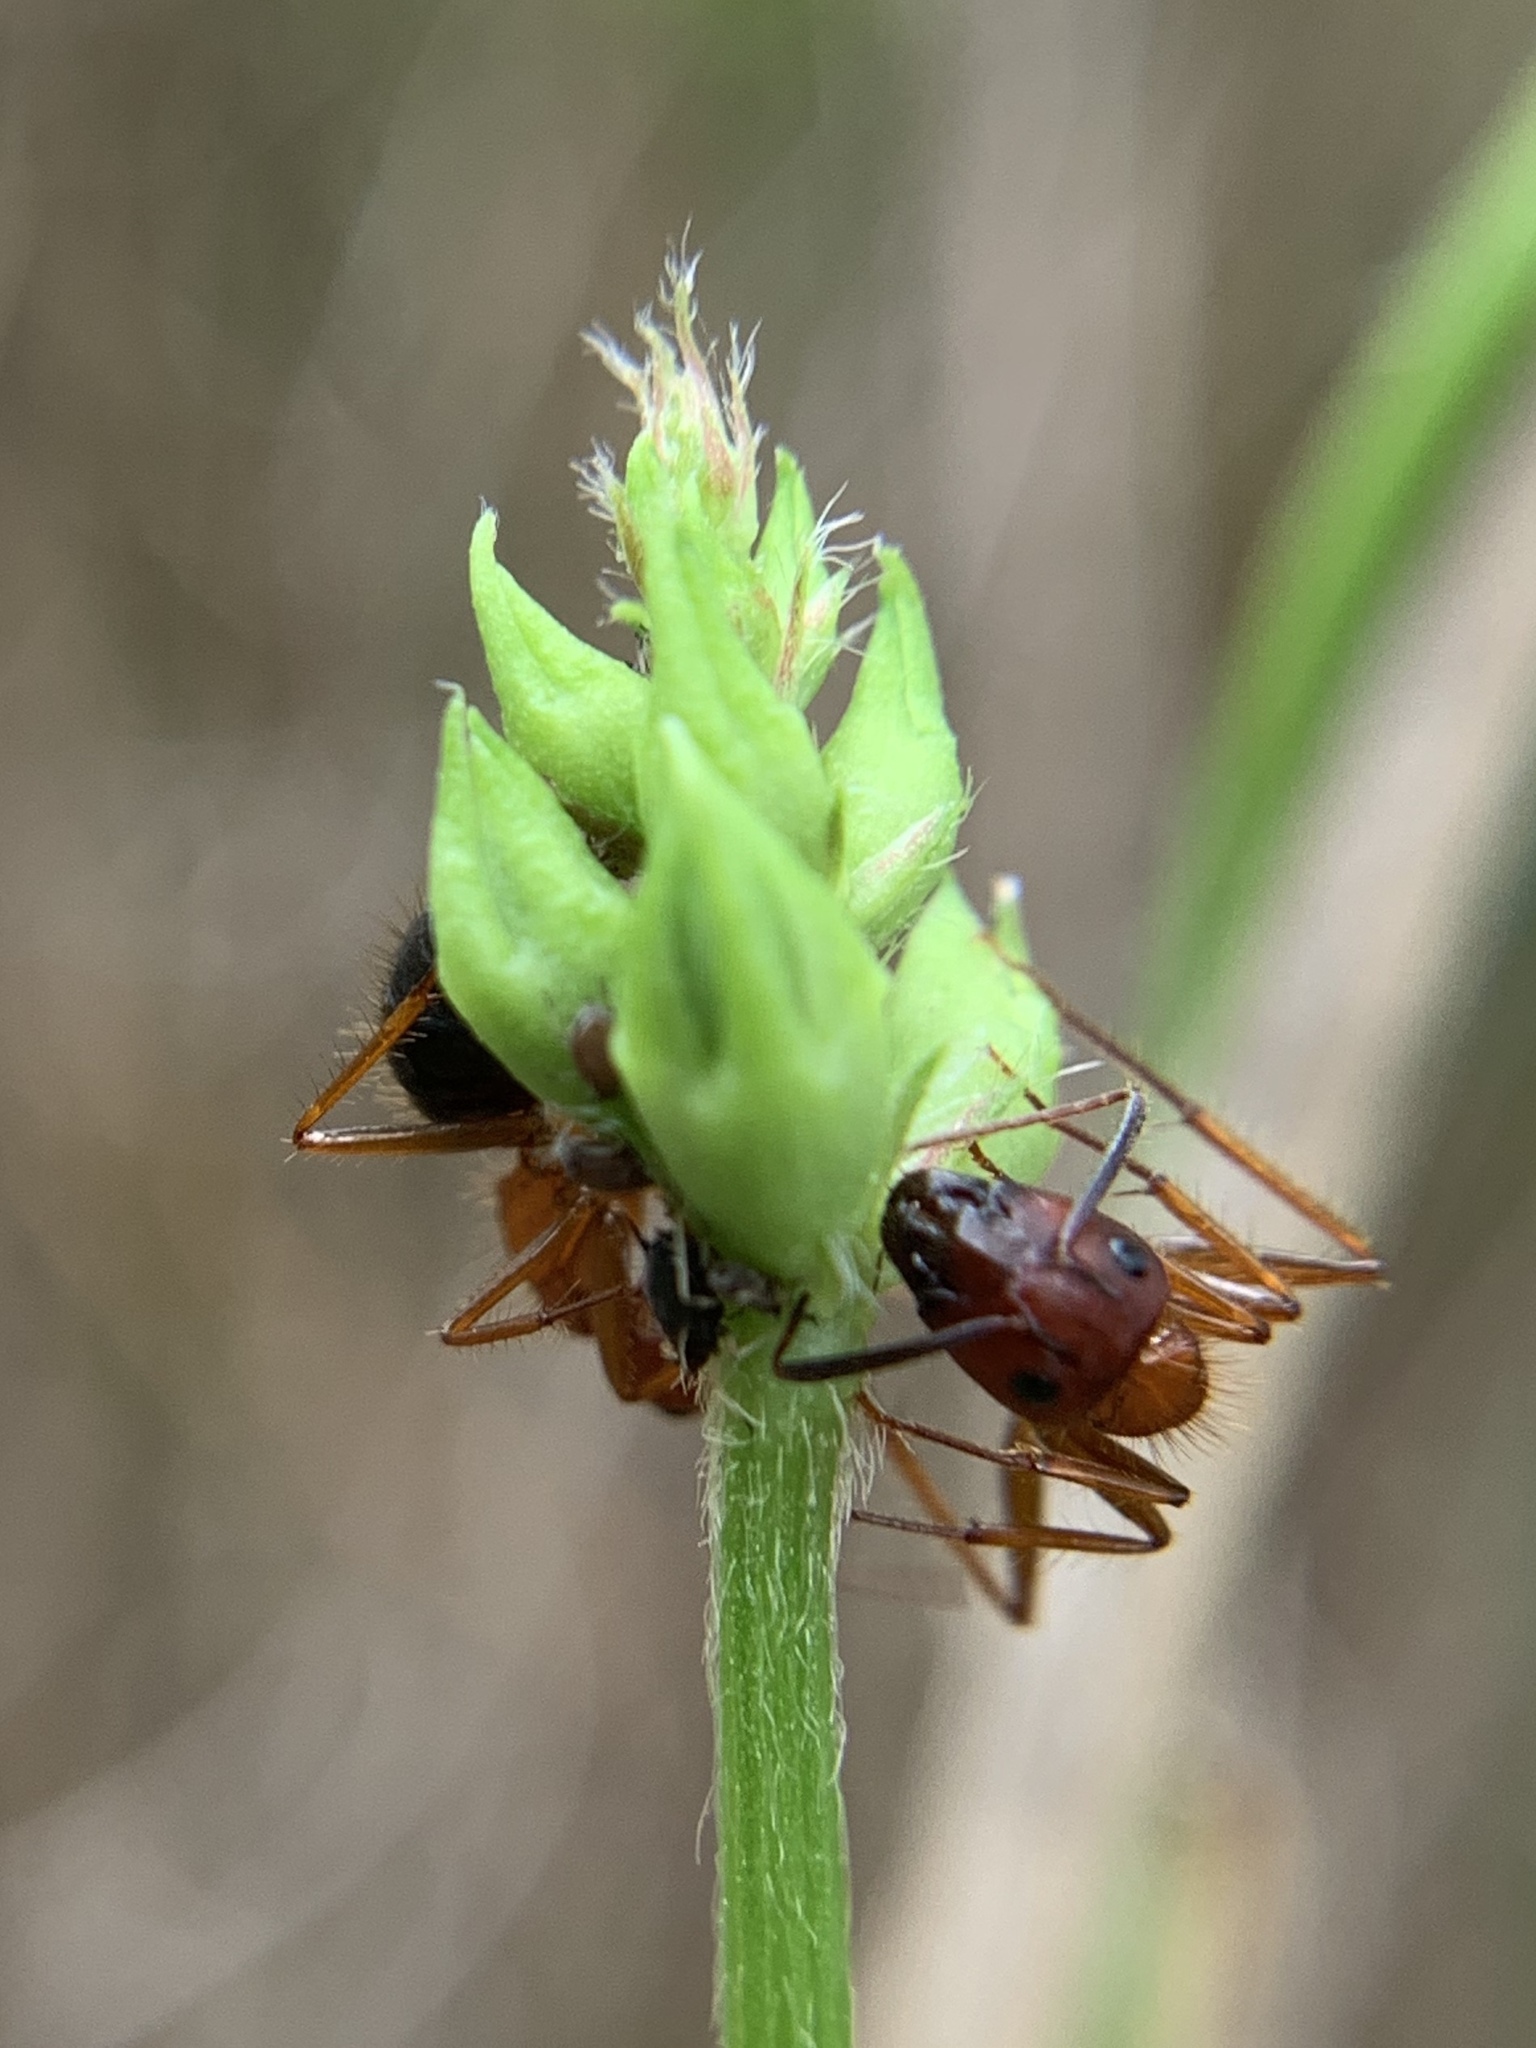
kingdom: Animalia
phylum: Arthropoda
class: Insecta
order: Hymenoptera
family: Formicidae
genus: Camponotus
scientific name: Camponotus floridanus
